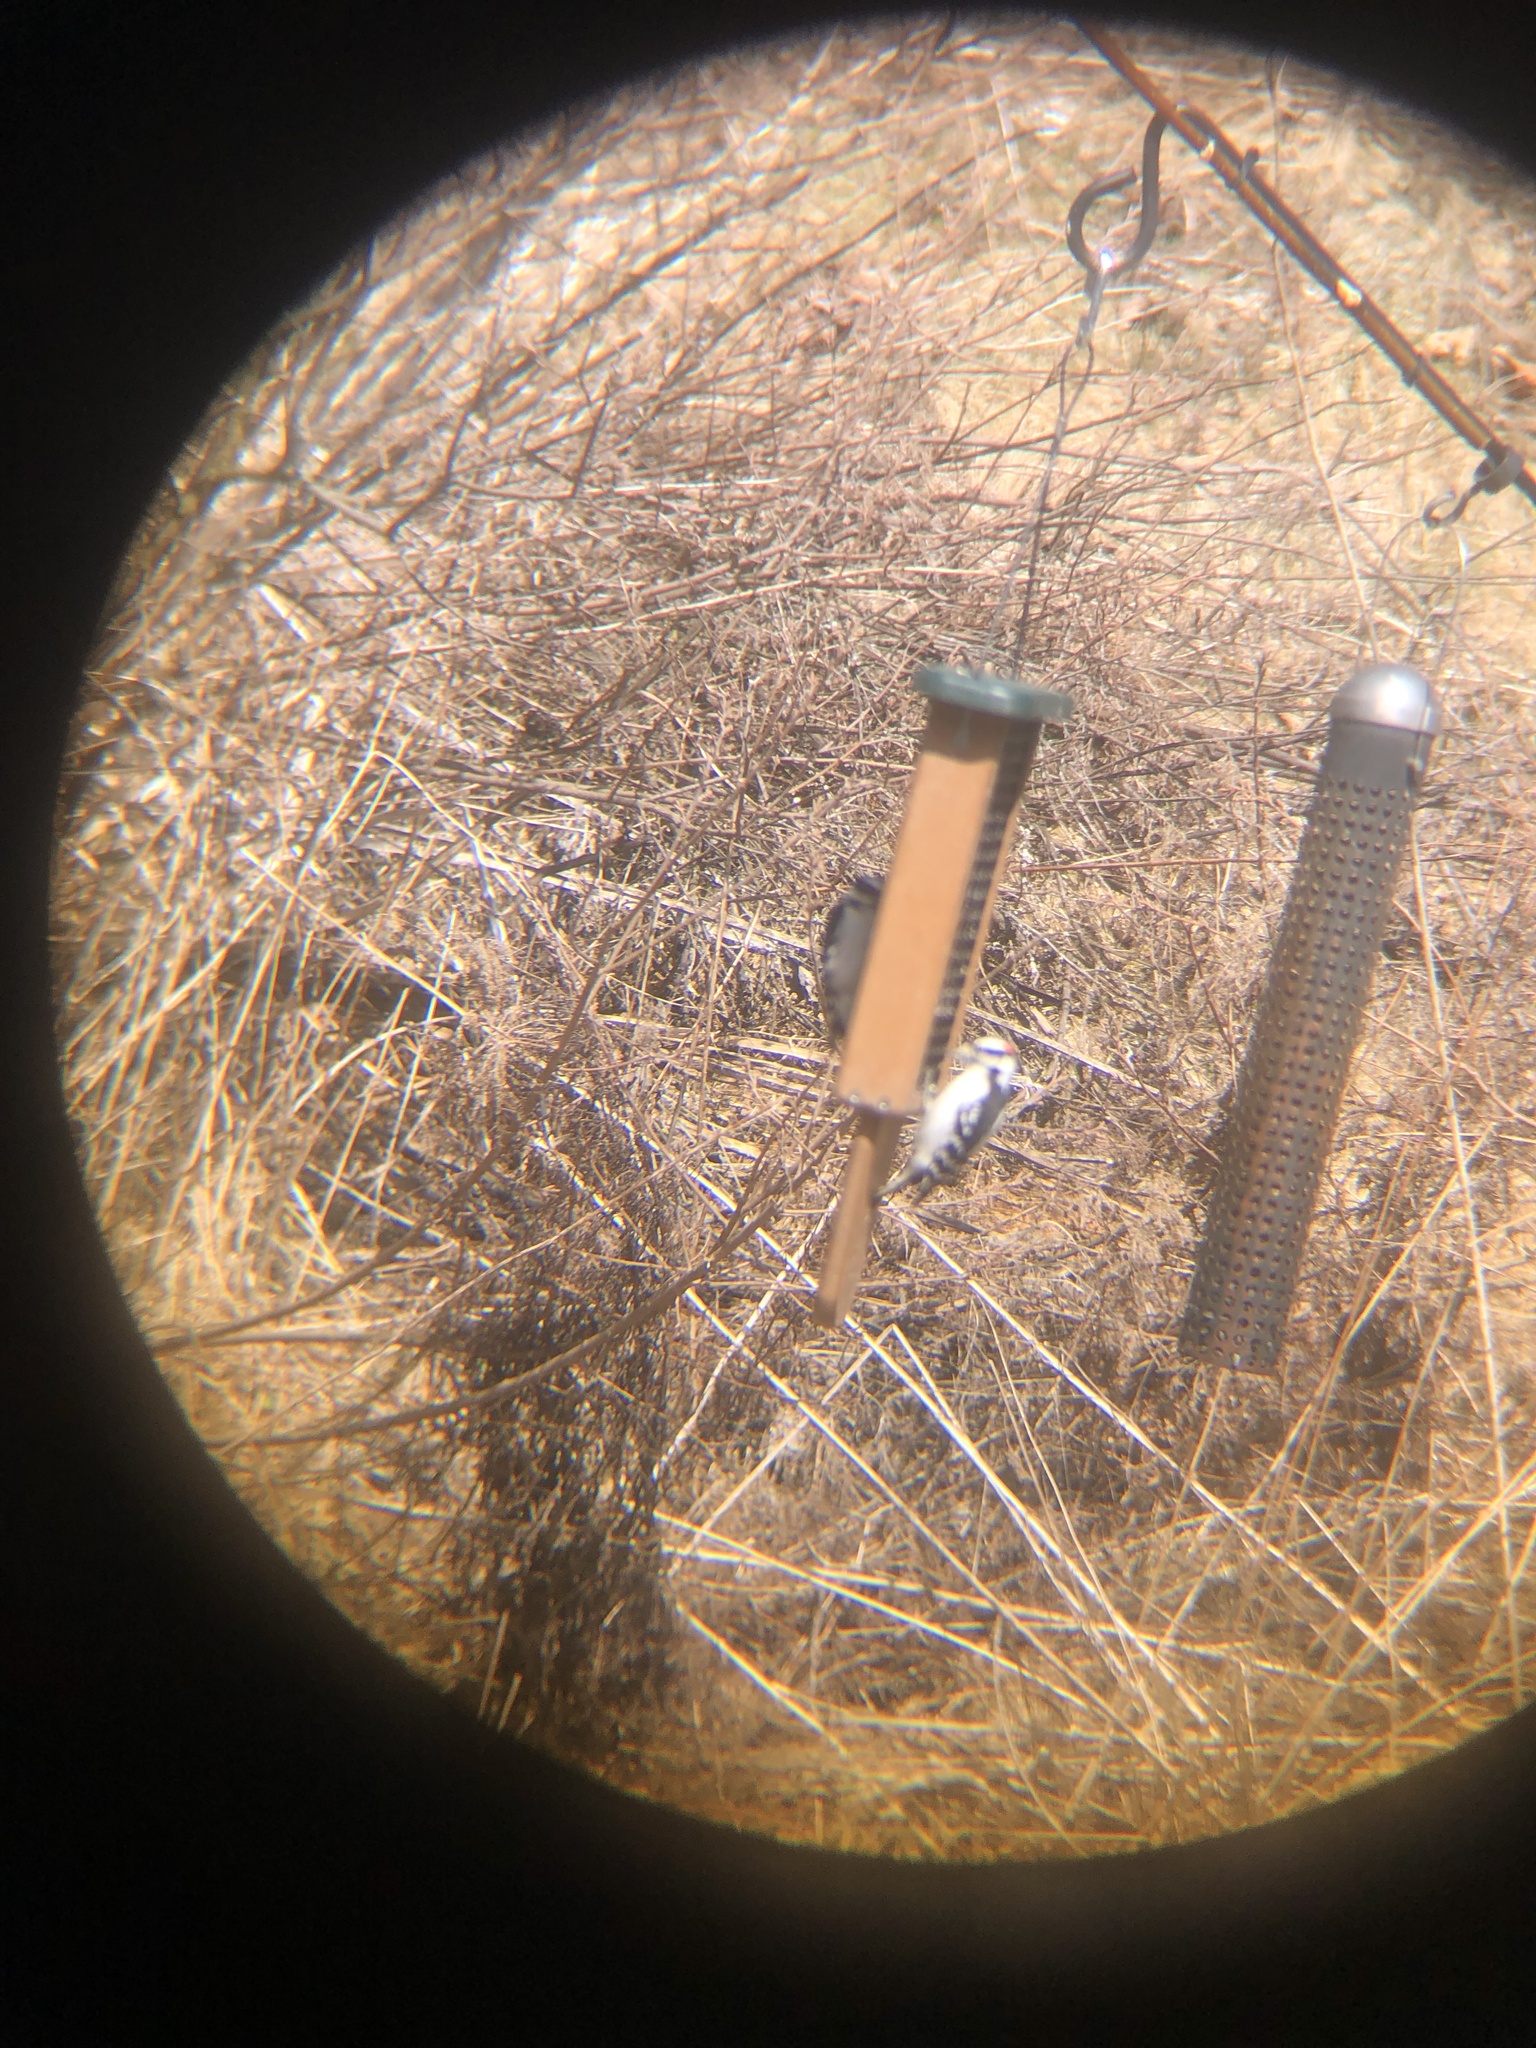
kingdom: Animalia
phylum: Chordata
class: Aves
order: Piciformes
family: Picidae
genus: Dryobates
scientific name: Dryobates pubescens
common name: Downy woodpecker
